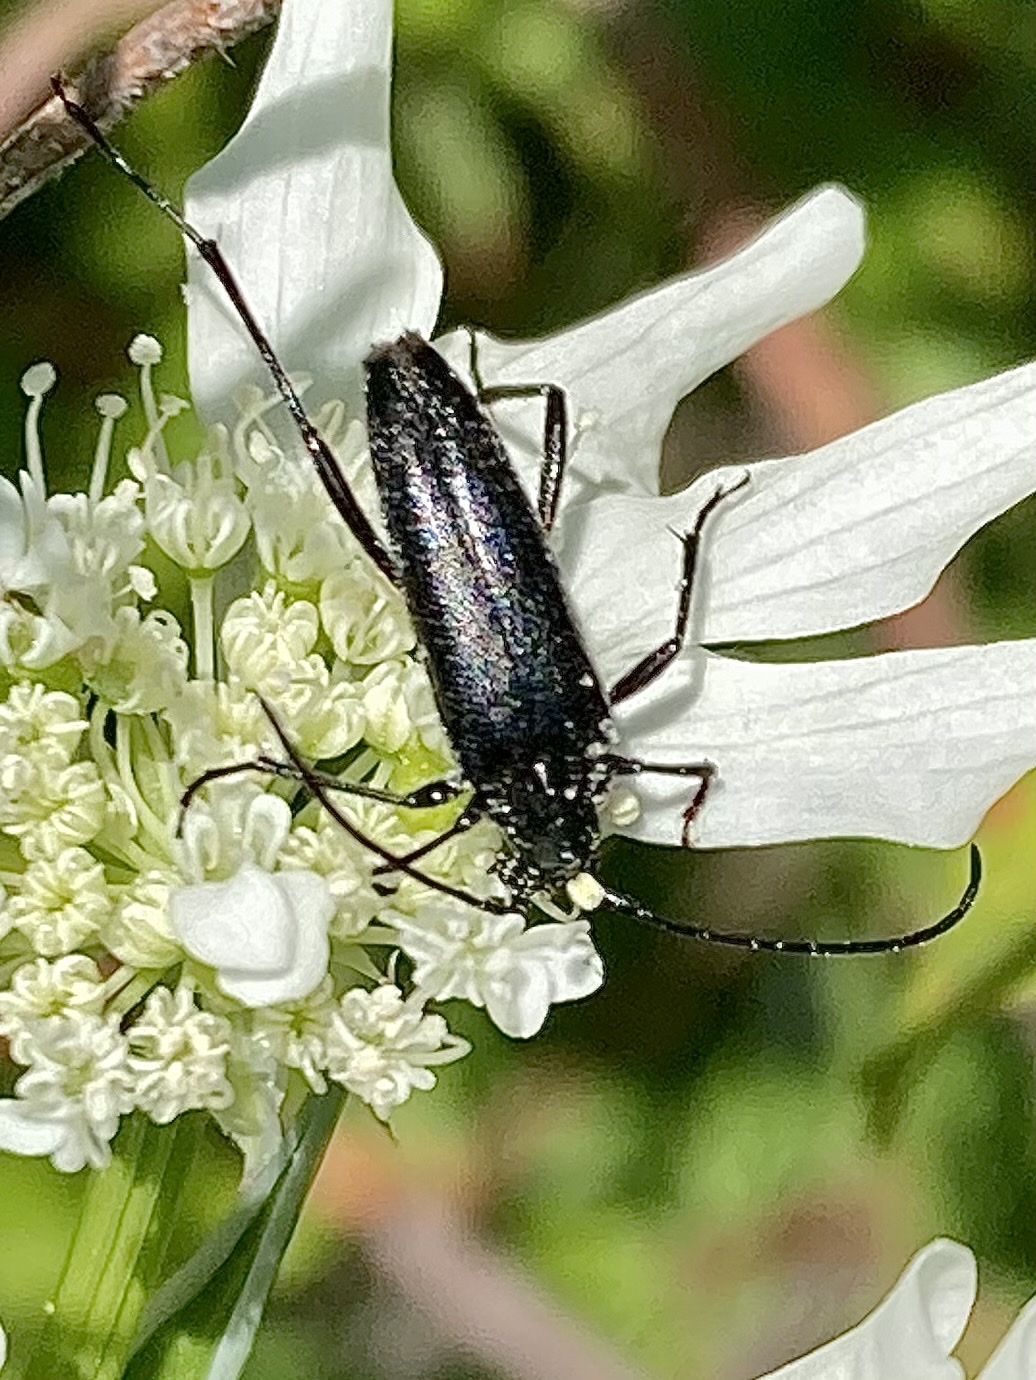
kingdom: Animalia
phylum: Arthropoda
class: Insecta
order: Coleoptera
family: Cerambycidae
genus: Stenurella
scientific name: Stenurella nigra
